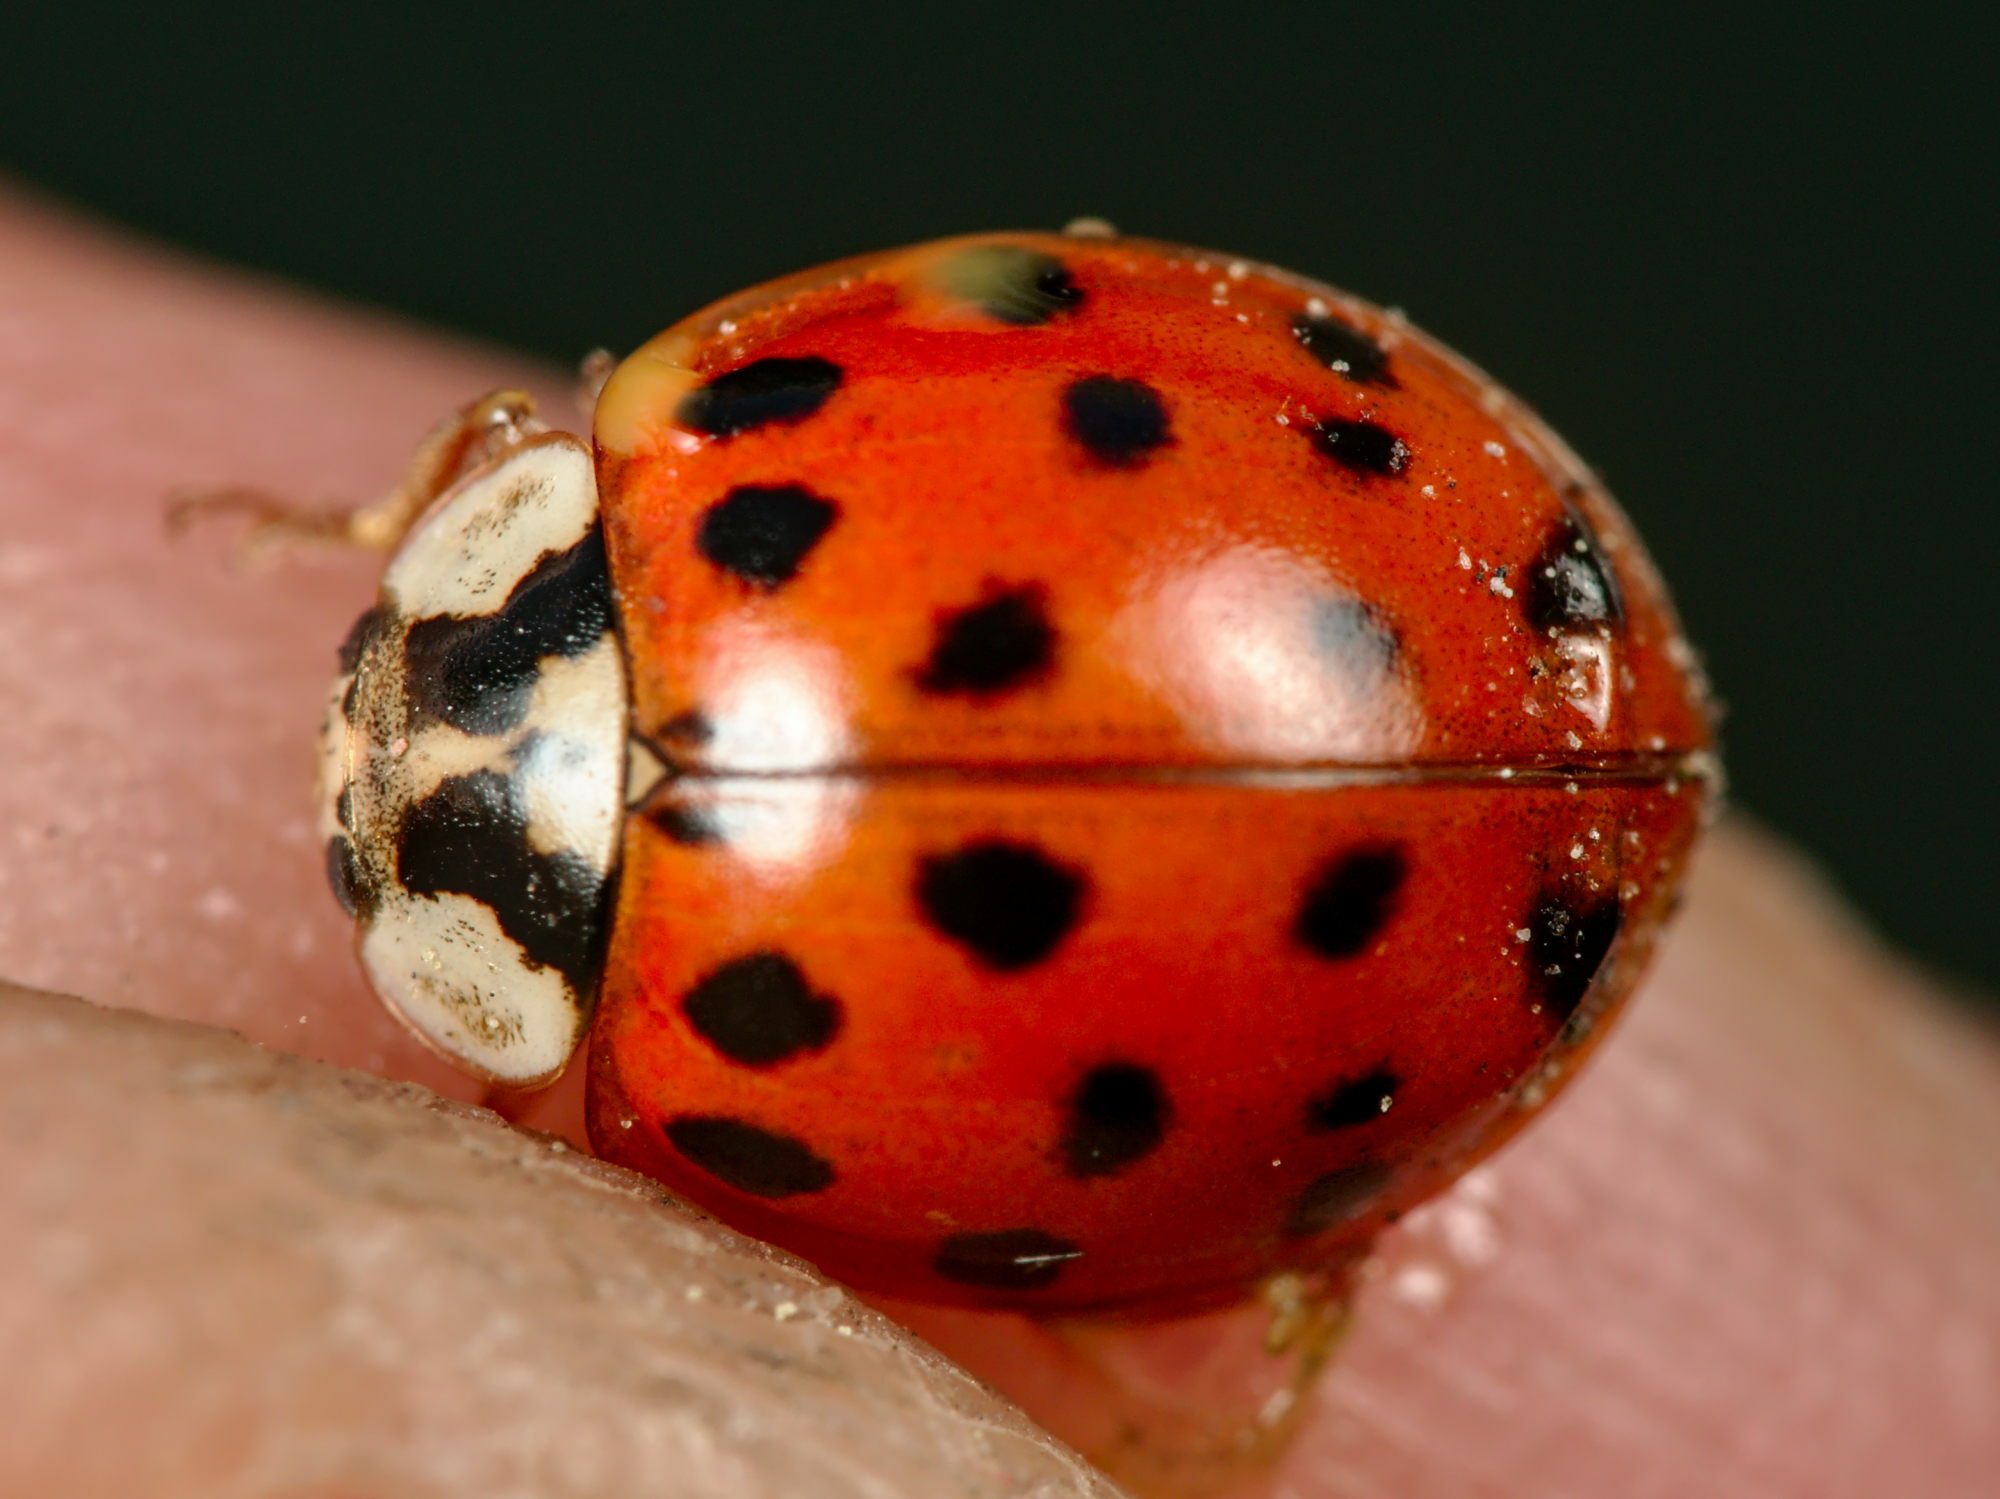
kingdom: Animalia
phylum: Arthropoda
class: Insecta
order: Coleoptera
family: Coccinellidae
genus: Harmonia
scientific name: Harmonia axyridis
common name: Harlequin ladybird
